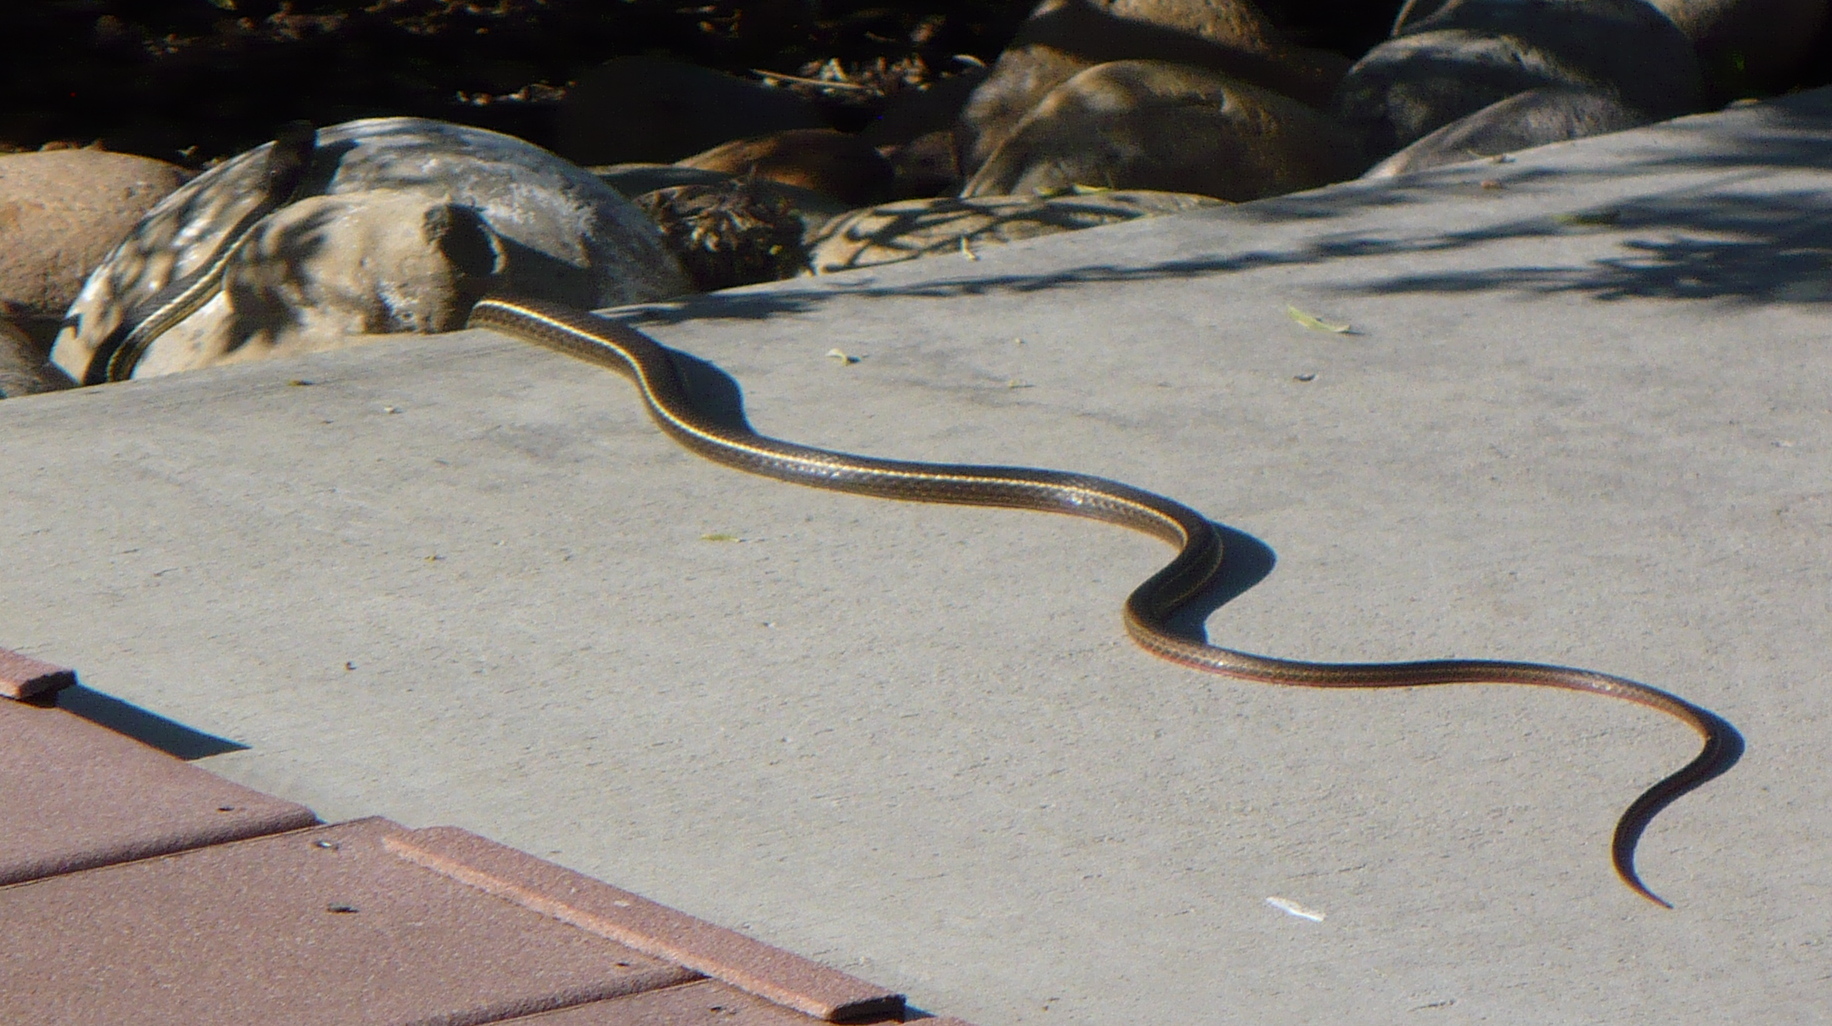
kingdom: Animalia
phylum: Chordata
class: Squamata
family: Colubridae
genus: Masticophis
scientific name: Masticophis lateralis
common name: Striped racer
